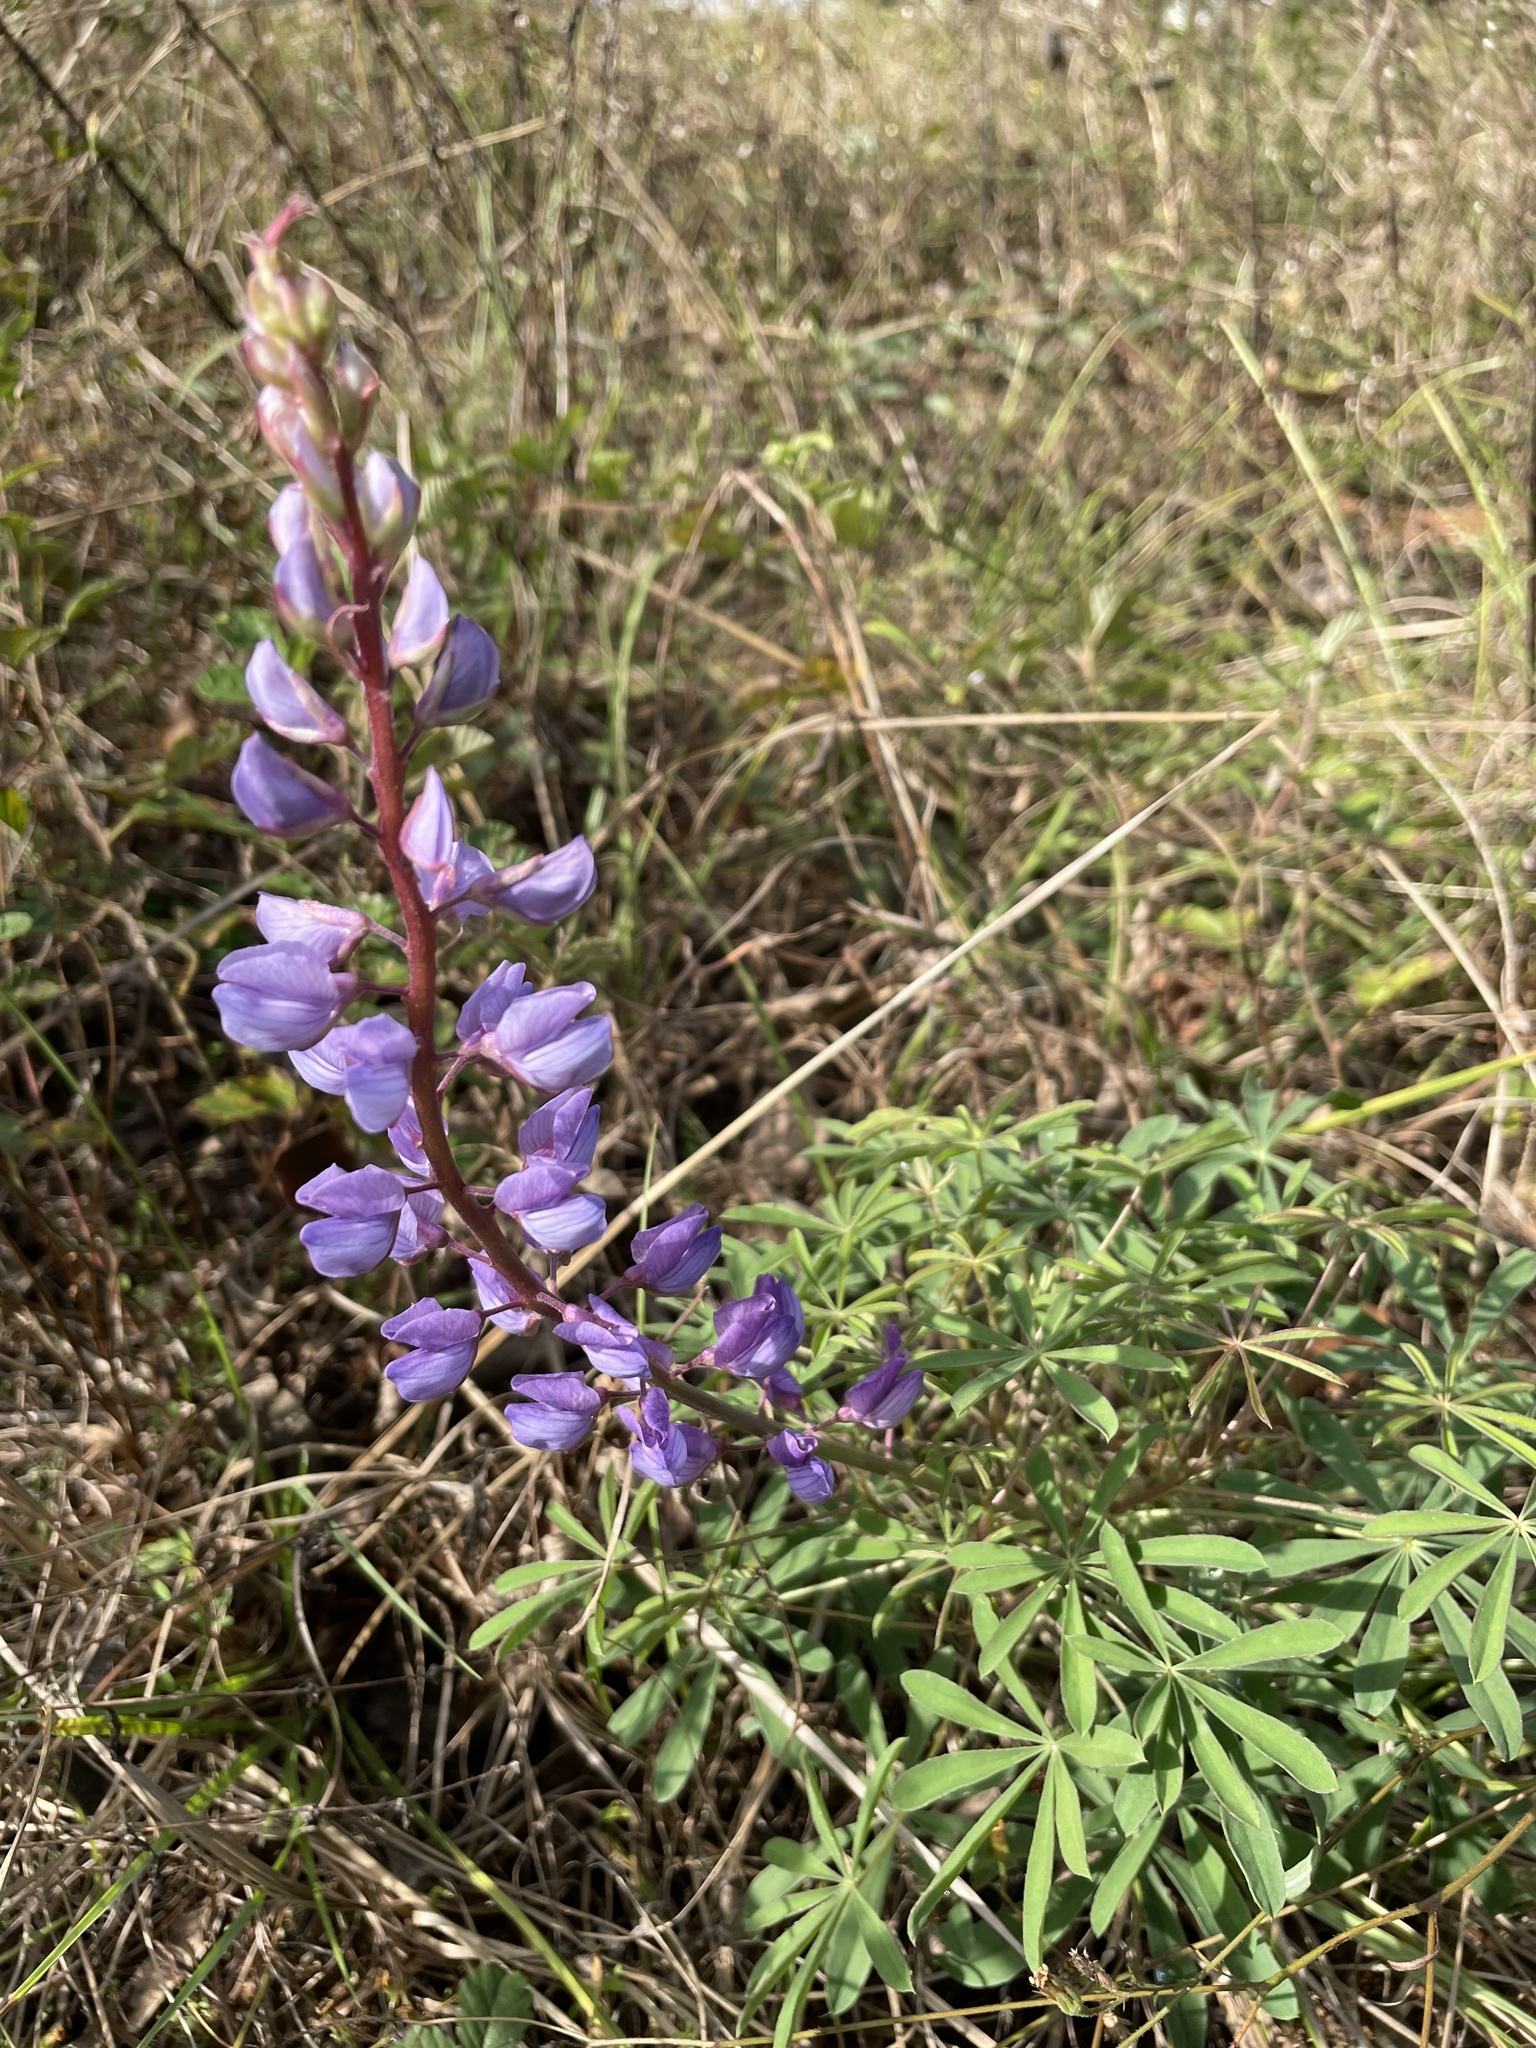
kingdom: Plantae
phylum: Tracheophyta
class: Magnoliopsida
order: Fabales
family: Fabaceae
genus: Lupinus
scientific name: Lupinus perennis
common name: Sundial lupine
